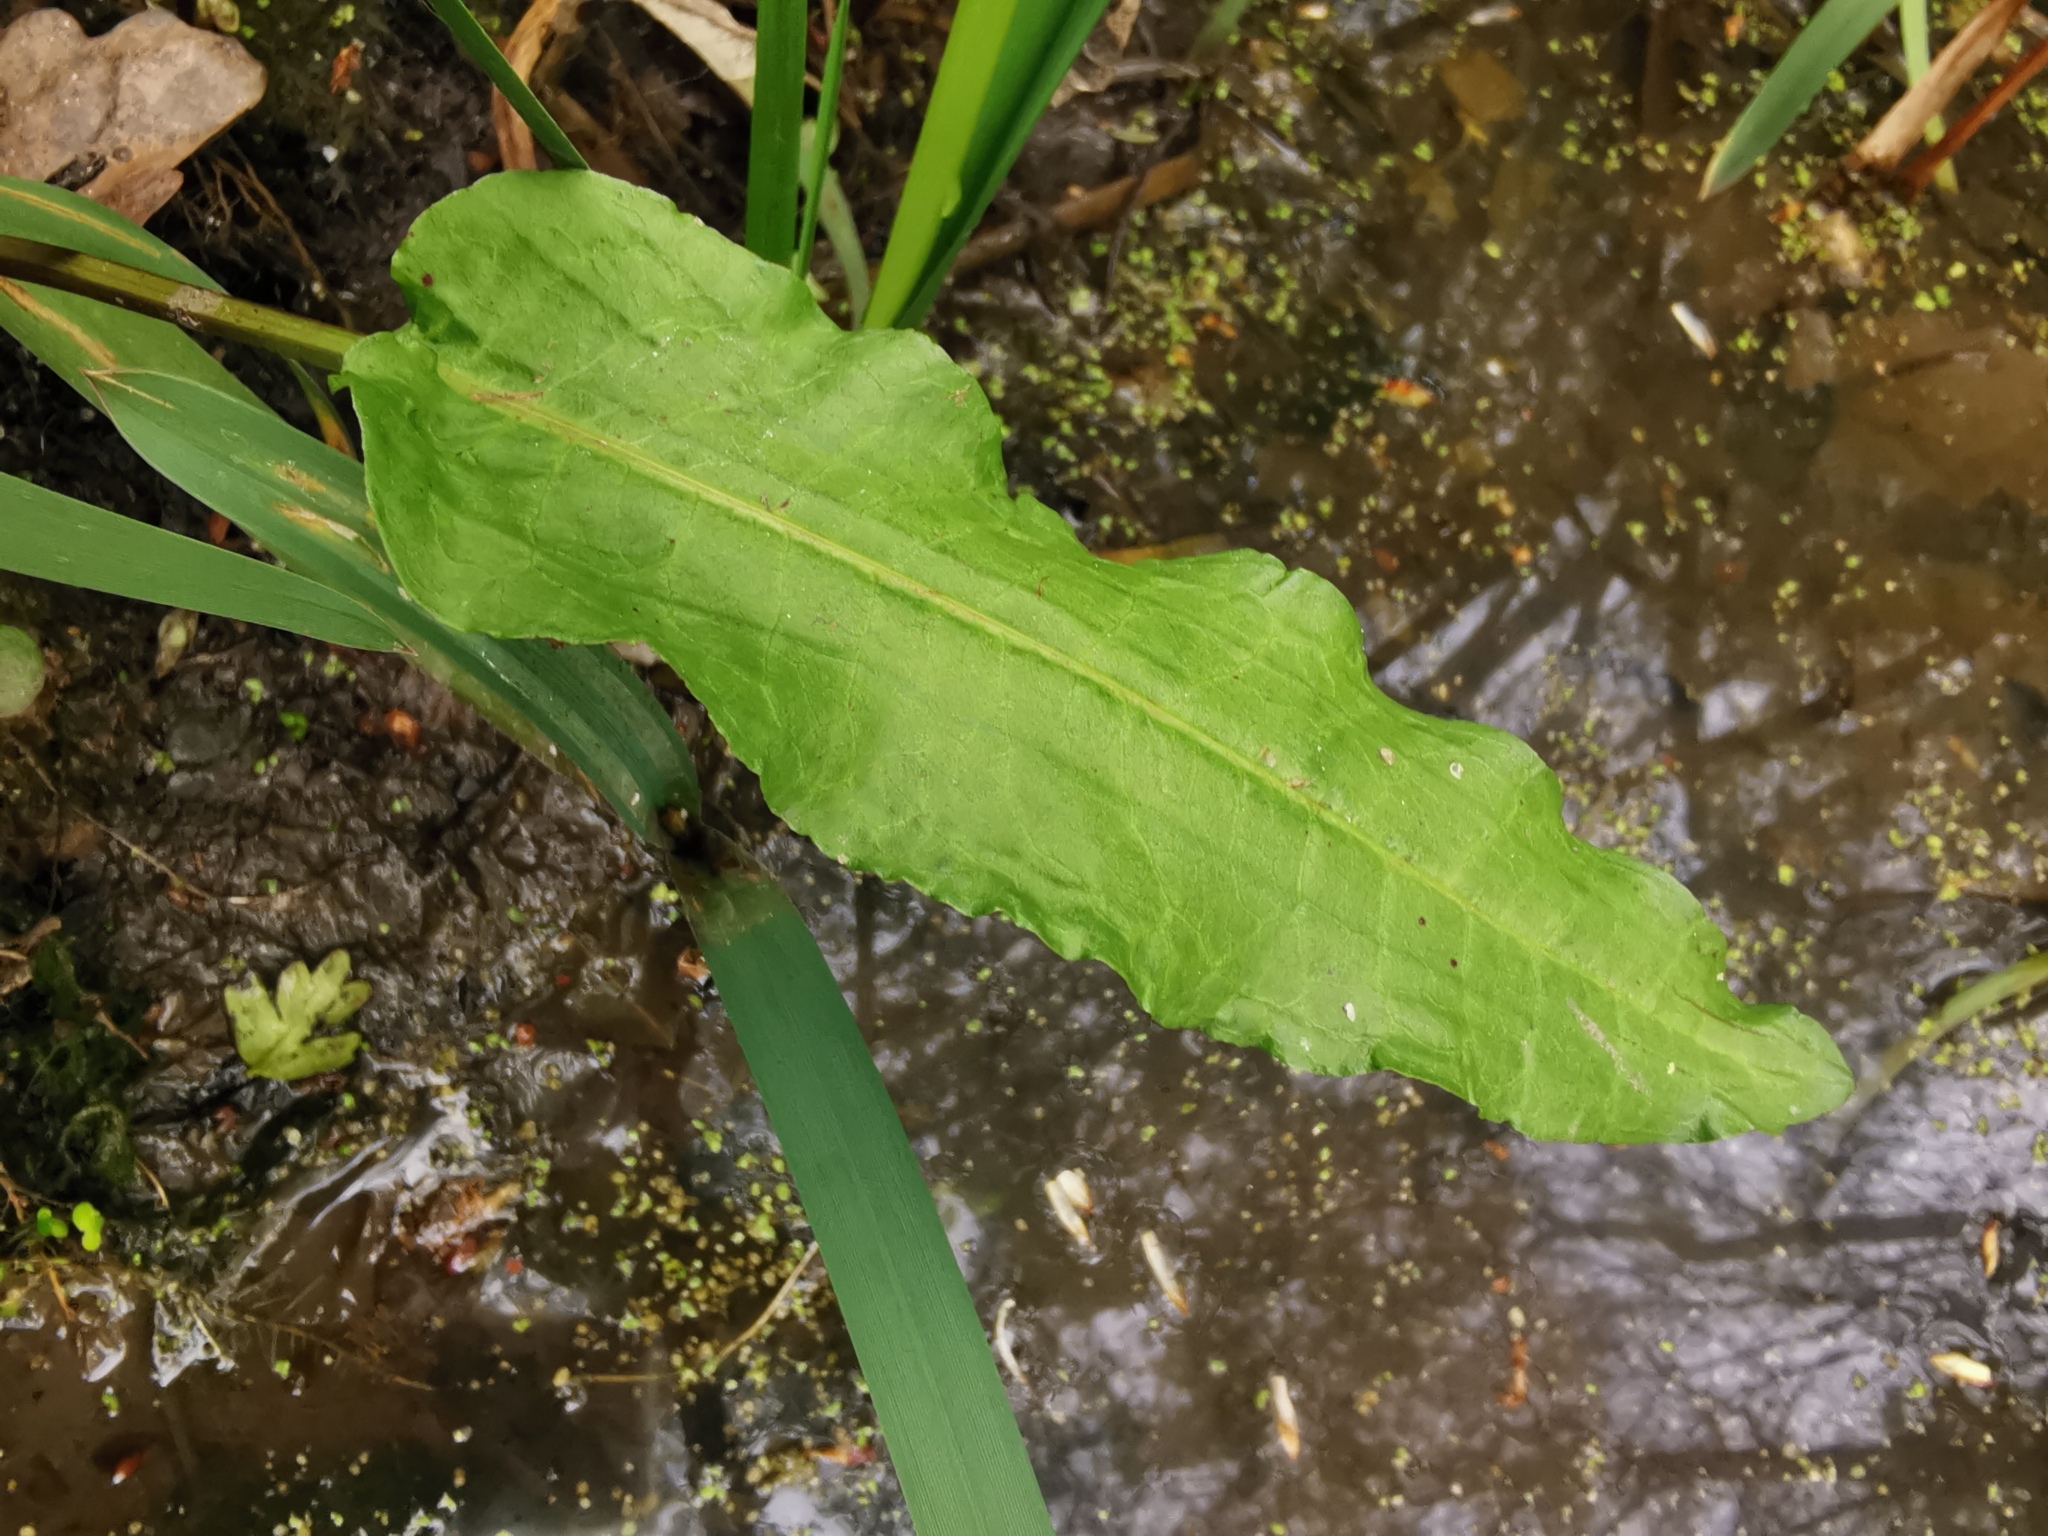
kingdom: Plantae
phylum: Tracheophyta
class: Magnoliopsida
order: Caryophyllales
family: Polygonaceae
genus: Rumex
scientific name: Rumex conglomeratus
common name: Clustered dock
